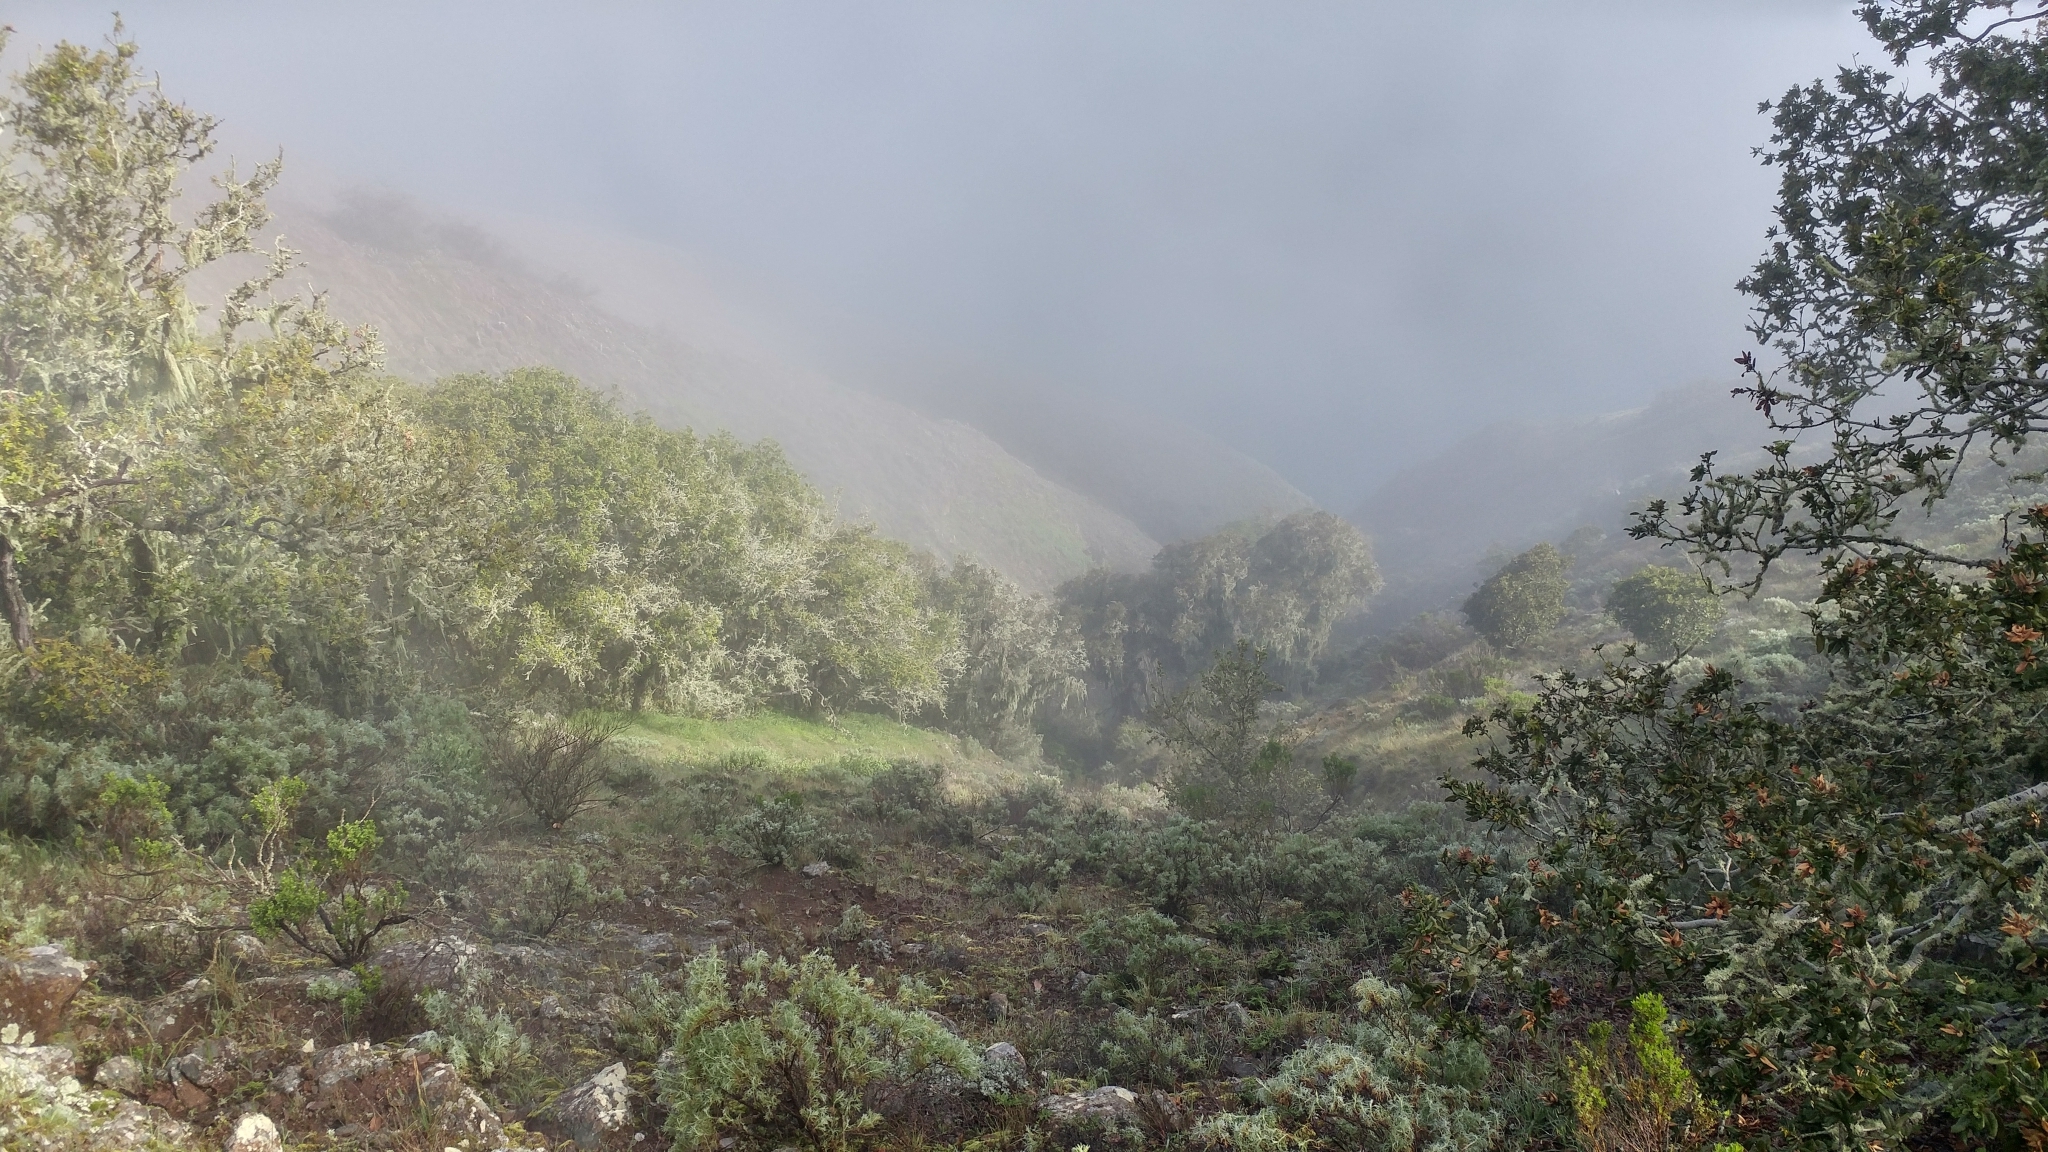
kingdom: Plantae
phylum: Tracheophyta
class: Magnoliopsida
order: Fagales
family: Fagaceae
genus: Quercus
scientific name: Quercus tomentella
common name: Island oak
